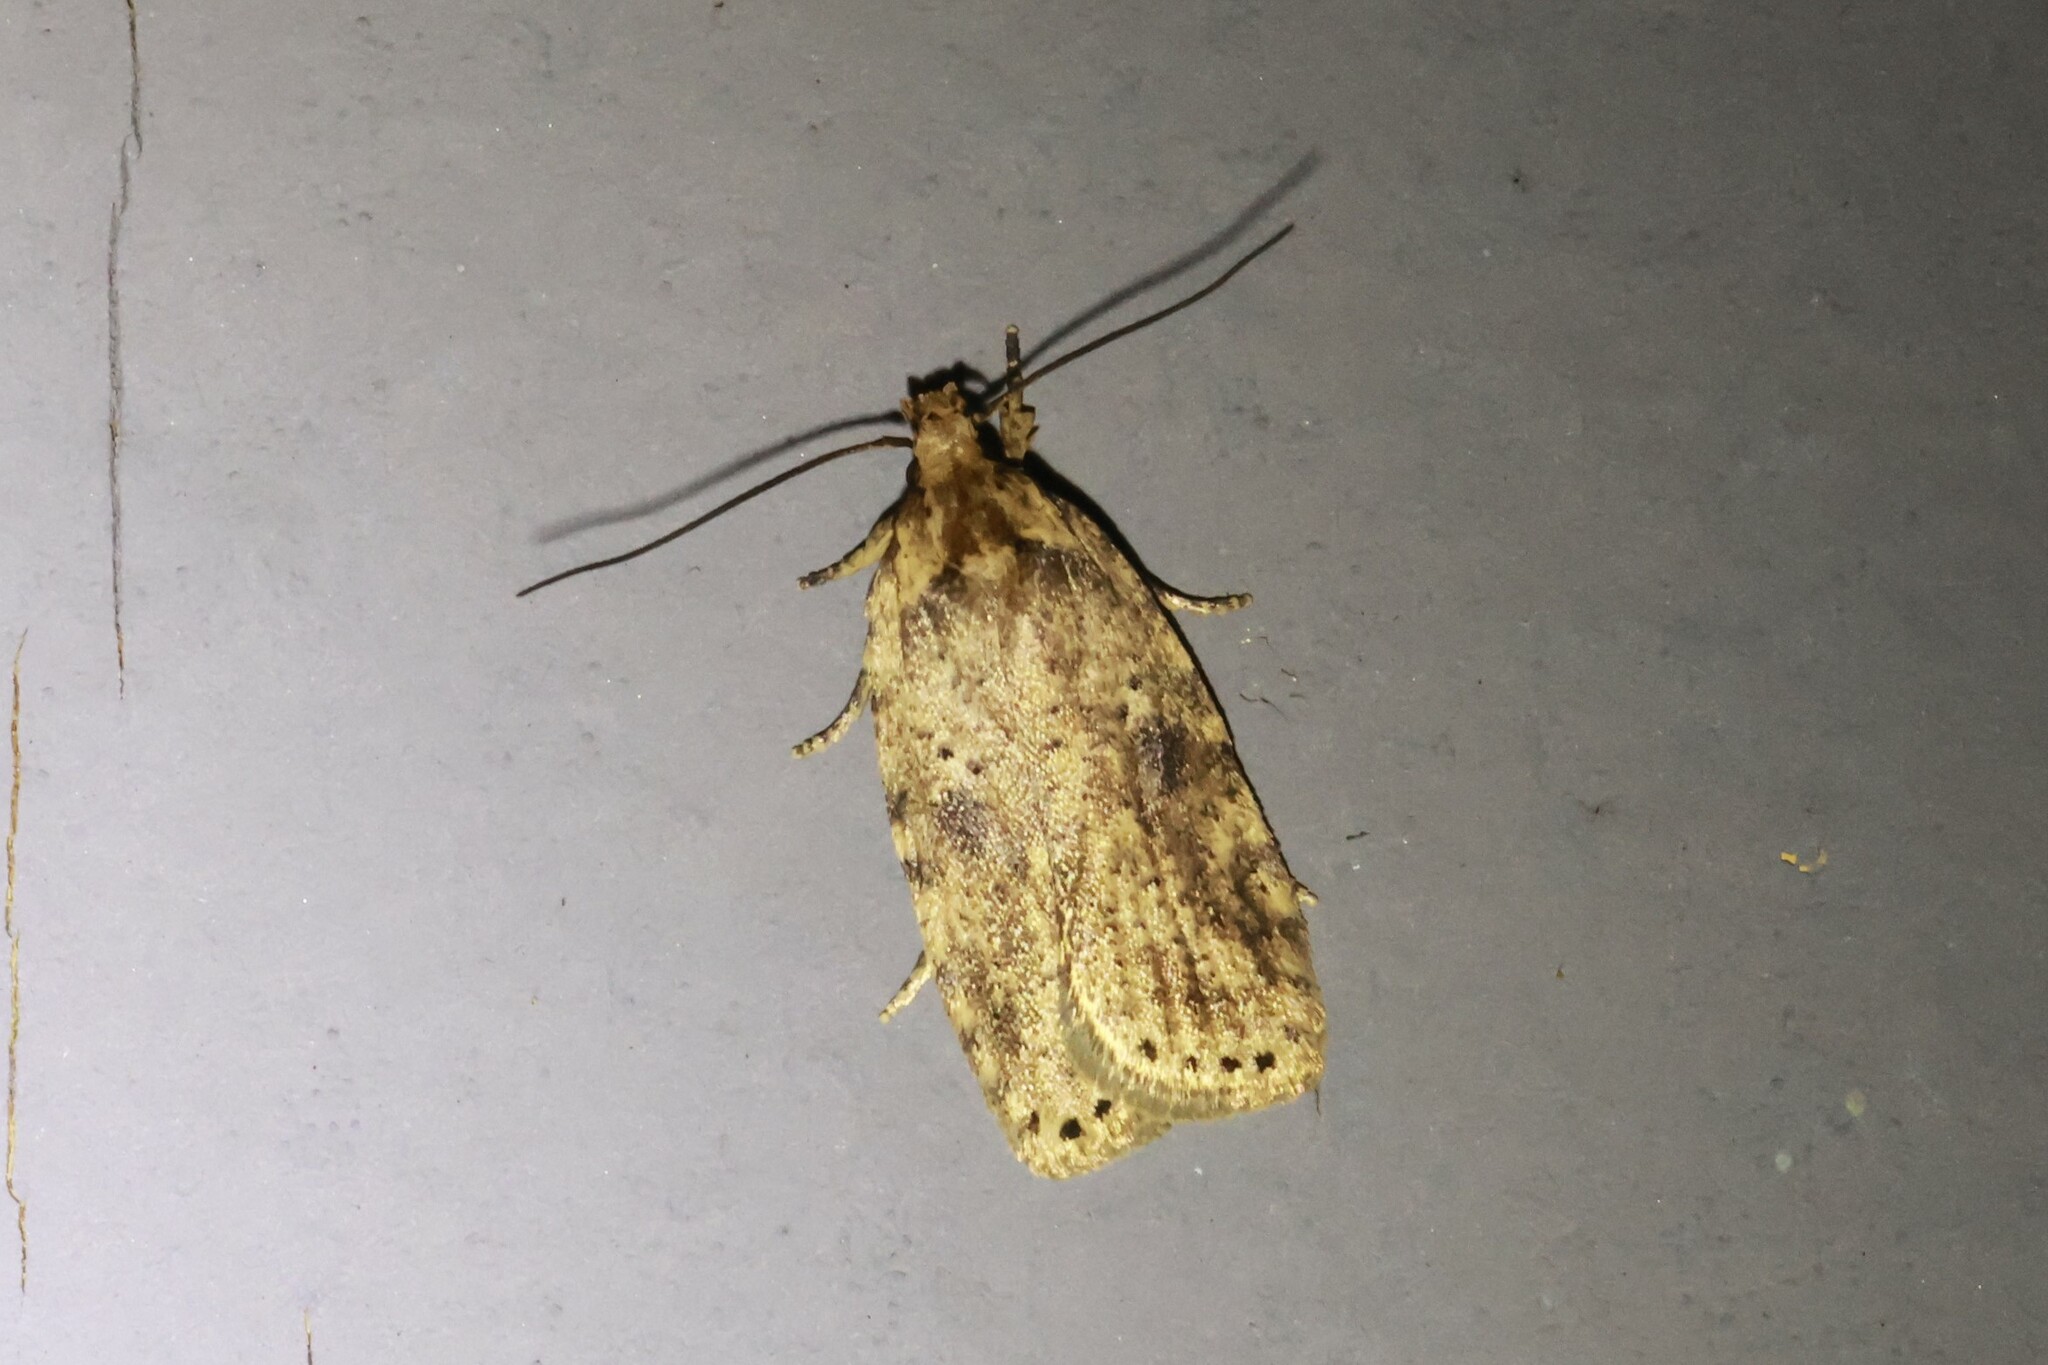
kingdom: Animalia
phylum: Arthropoda
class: Insecta
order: Lepidoptera
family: Depressariidae
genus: Agonopterix
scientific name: Agonopterix canadensis
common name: Canadian agonopterix moth
